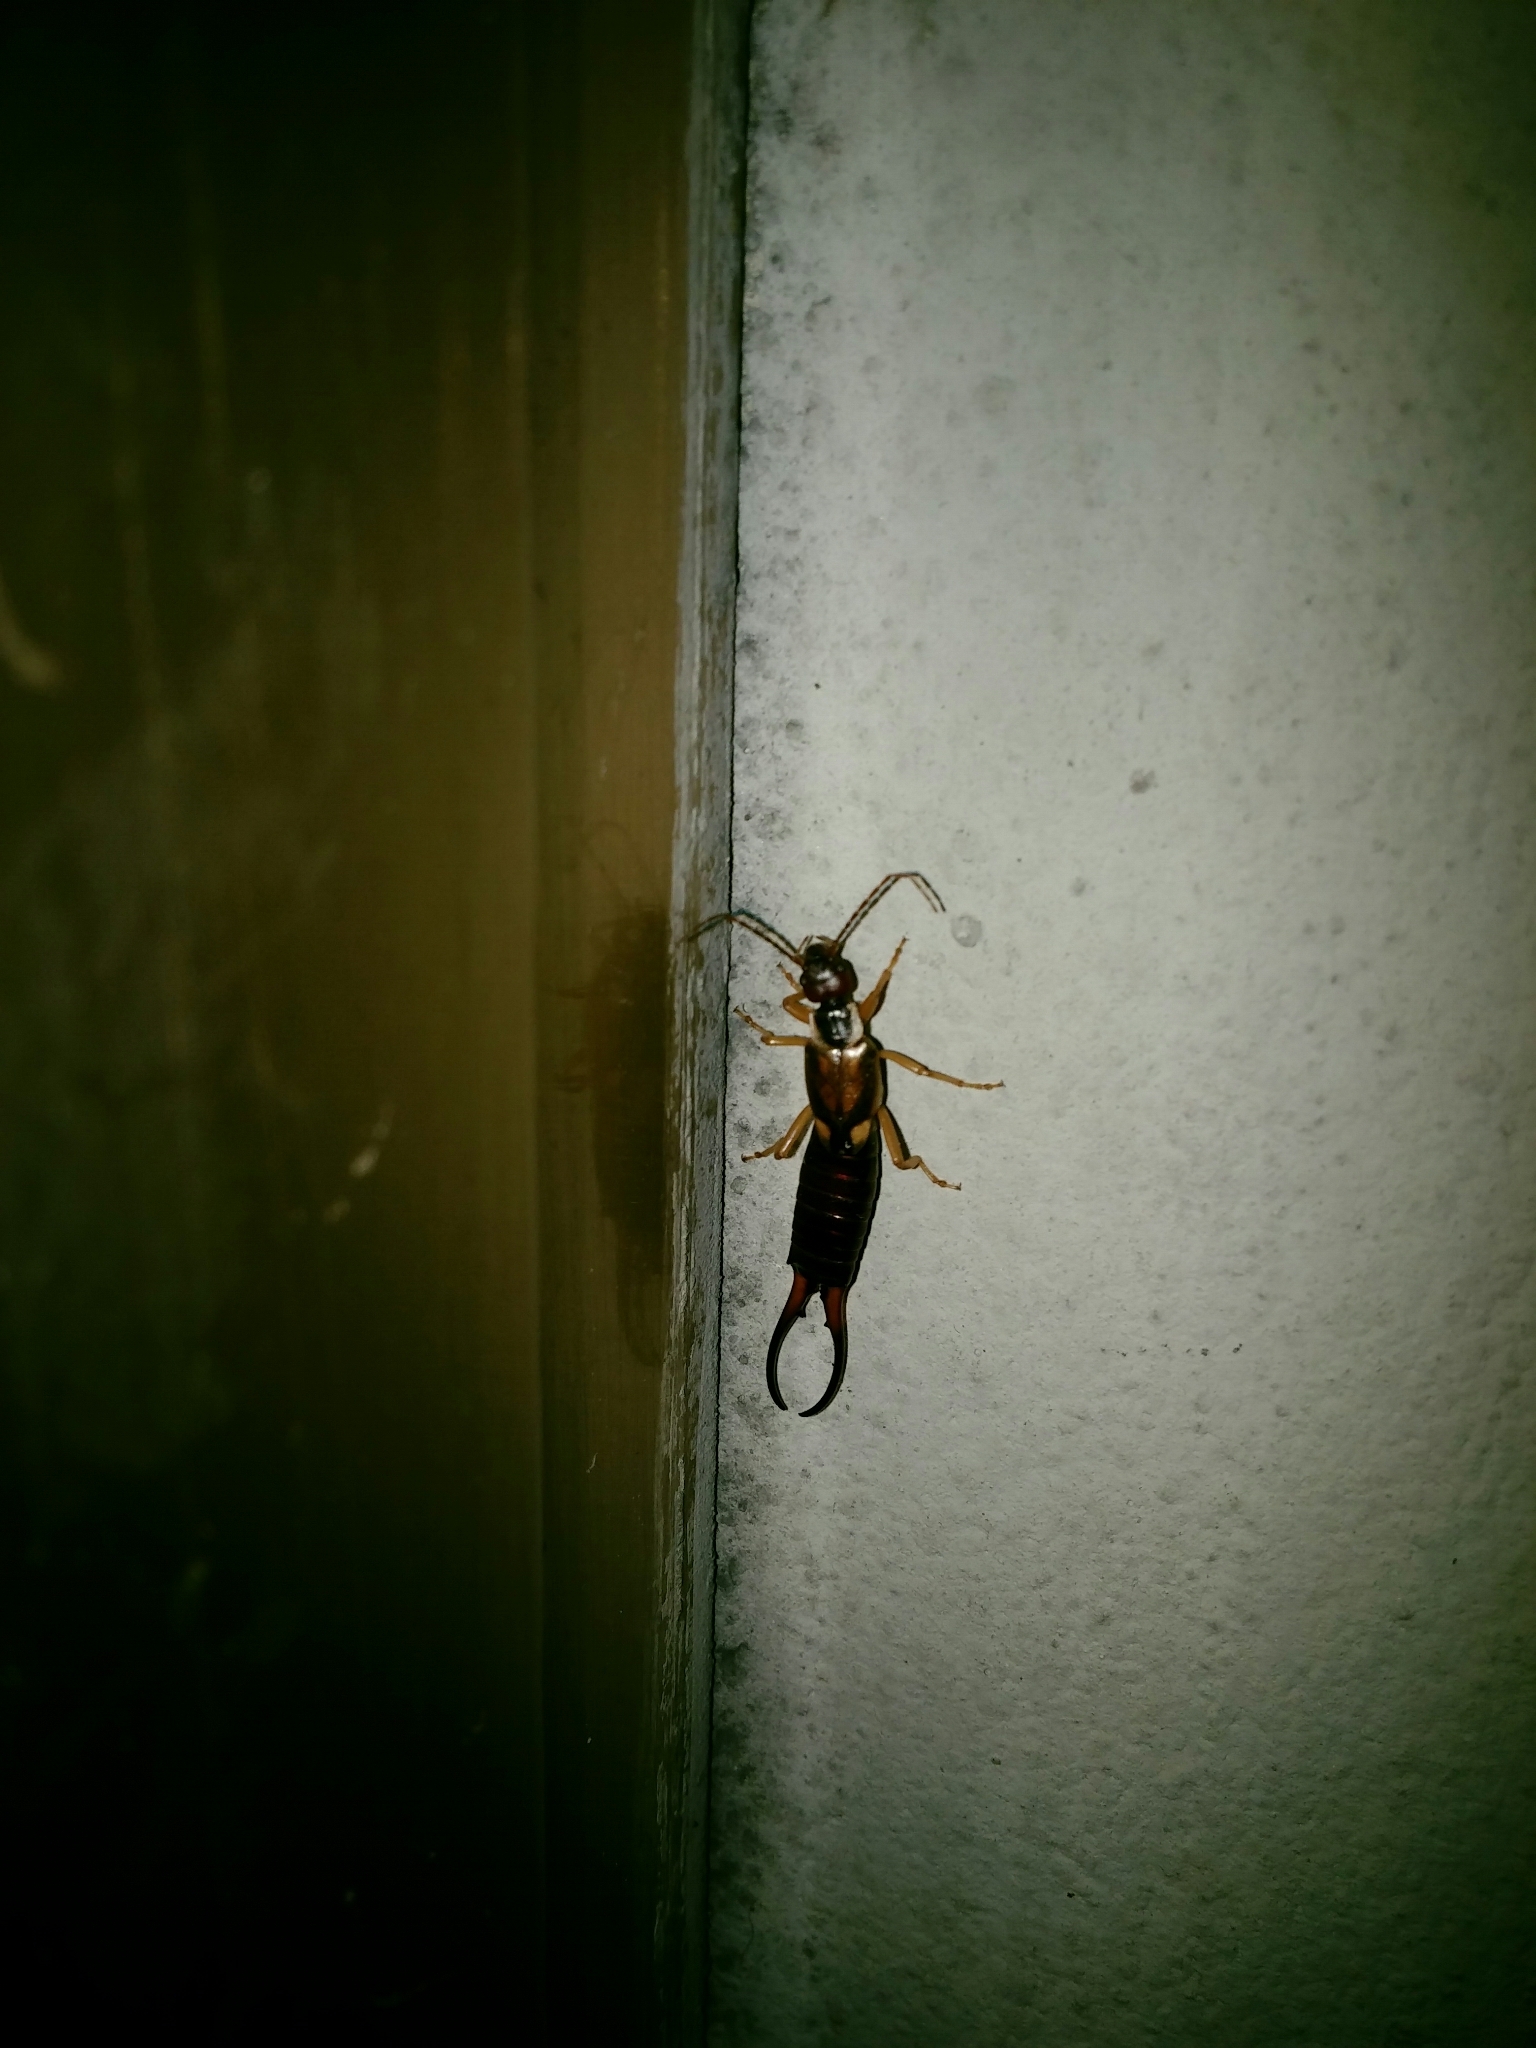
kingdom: Animalia
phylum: Arthropoda
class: Insecta
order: Dermaptera
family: Forficulidae
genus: Forficula
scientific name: Forficula
